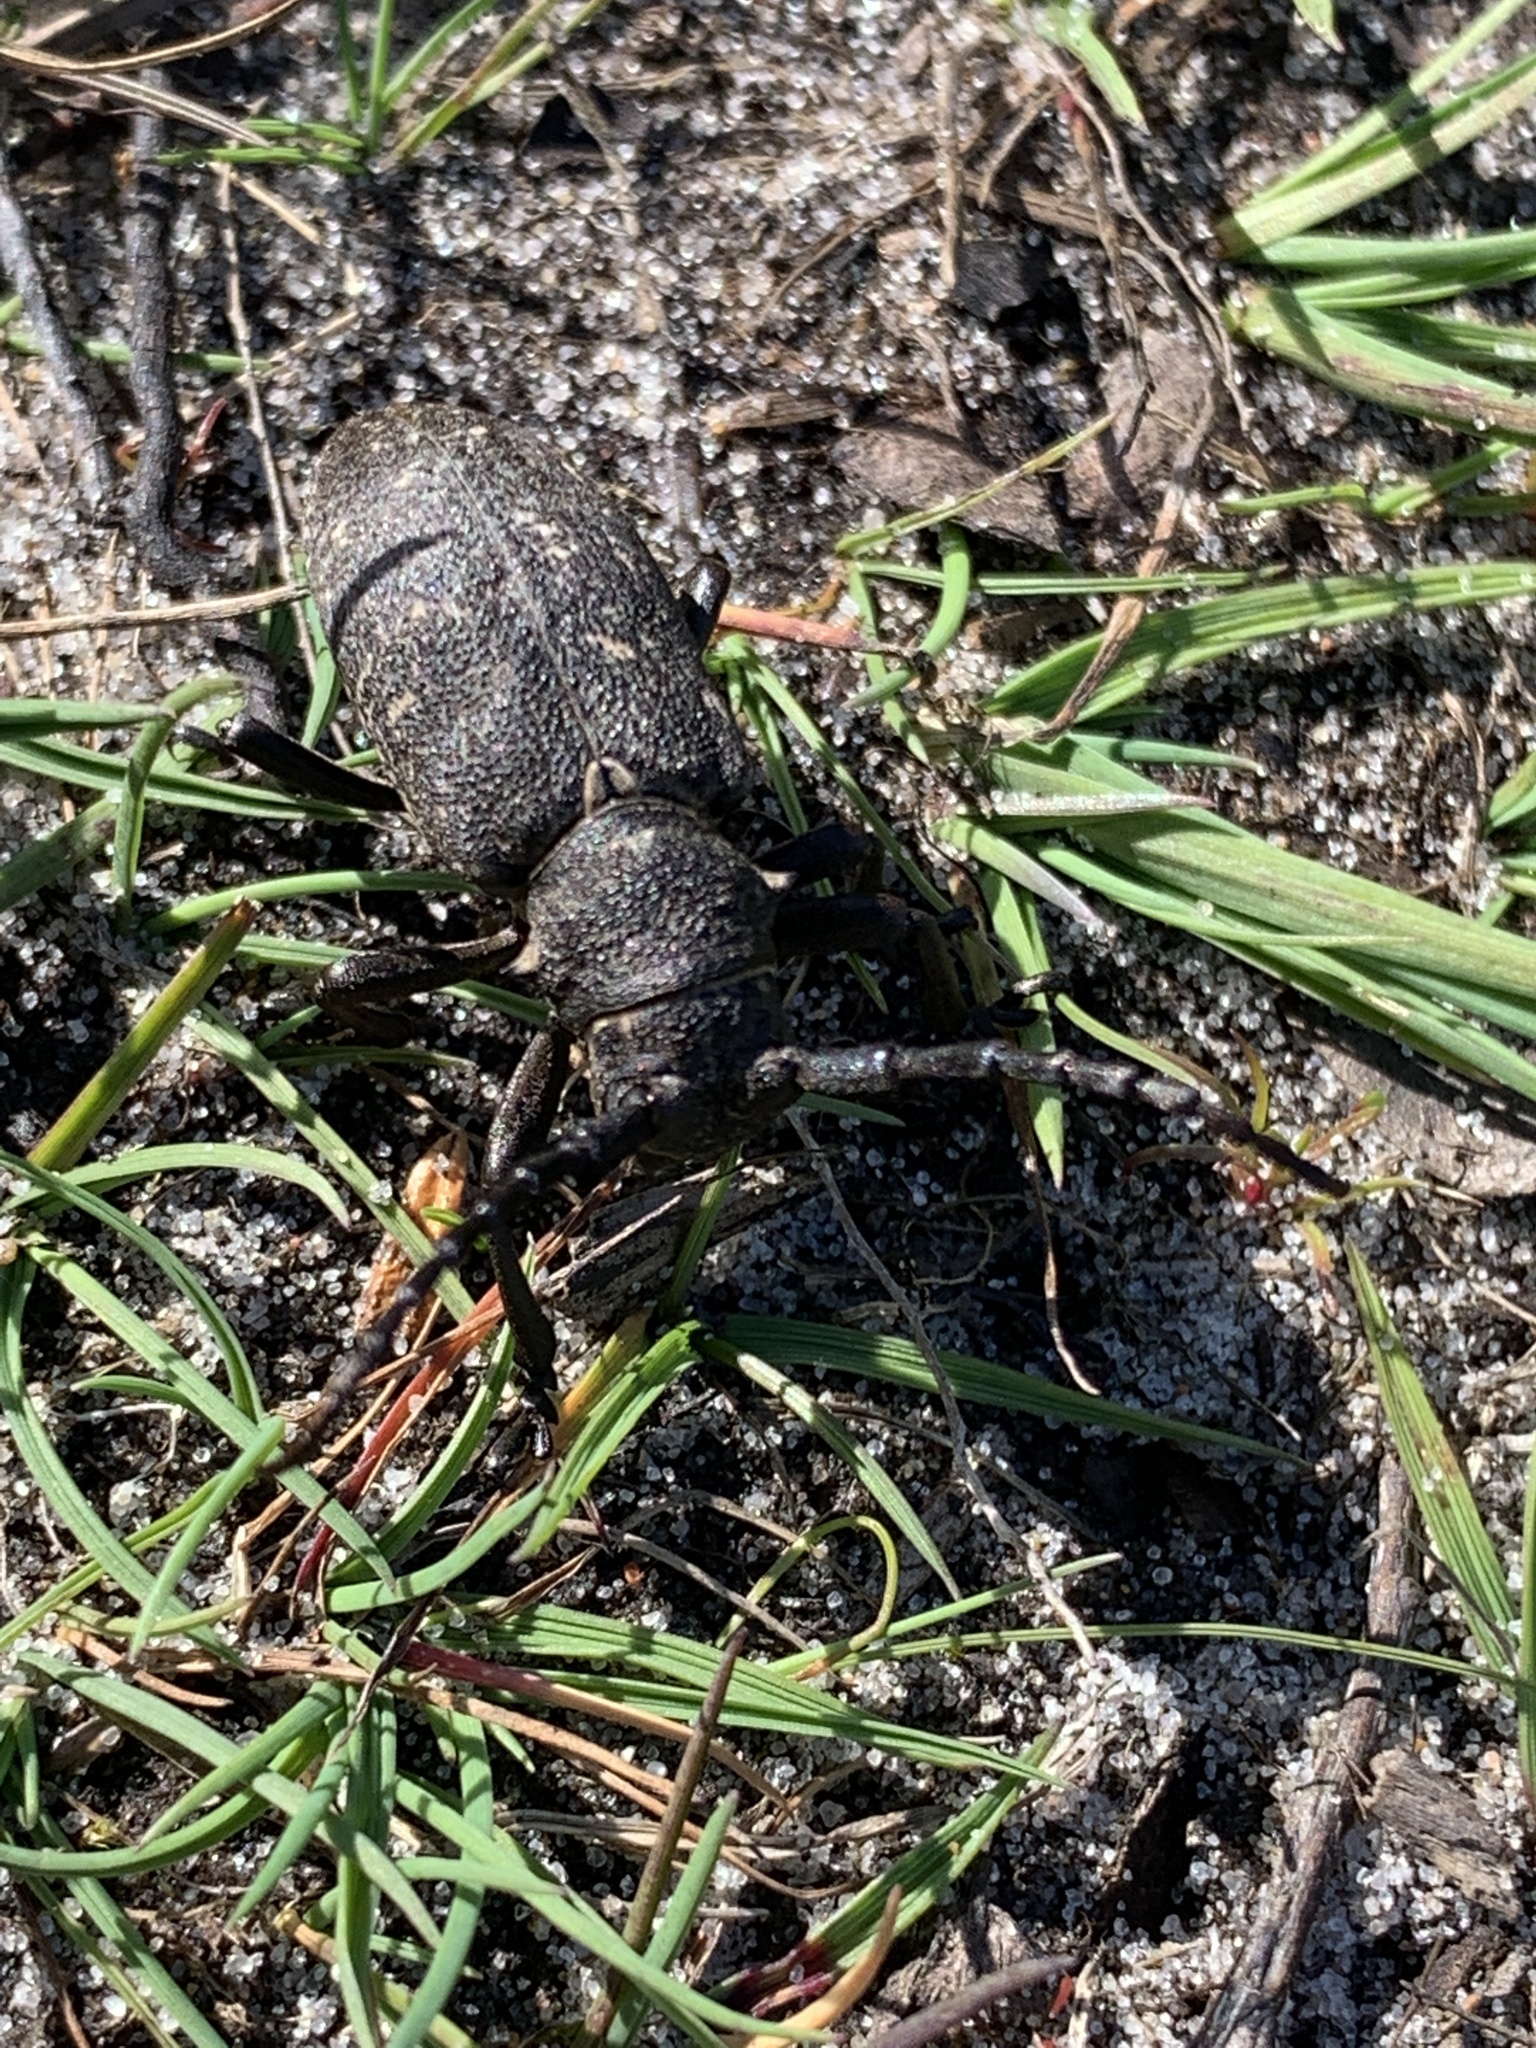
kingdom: Animalia
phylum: Arthropoda
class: Insecta
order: Coleoptera
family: Cerambycidae
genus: Lamia
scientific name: Lamia textor
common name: Weaver beetle
